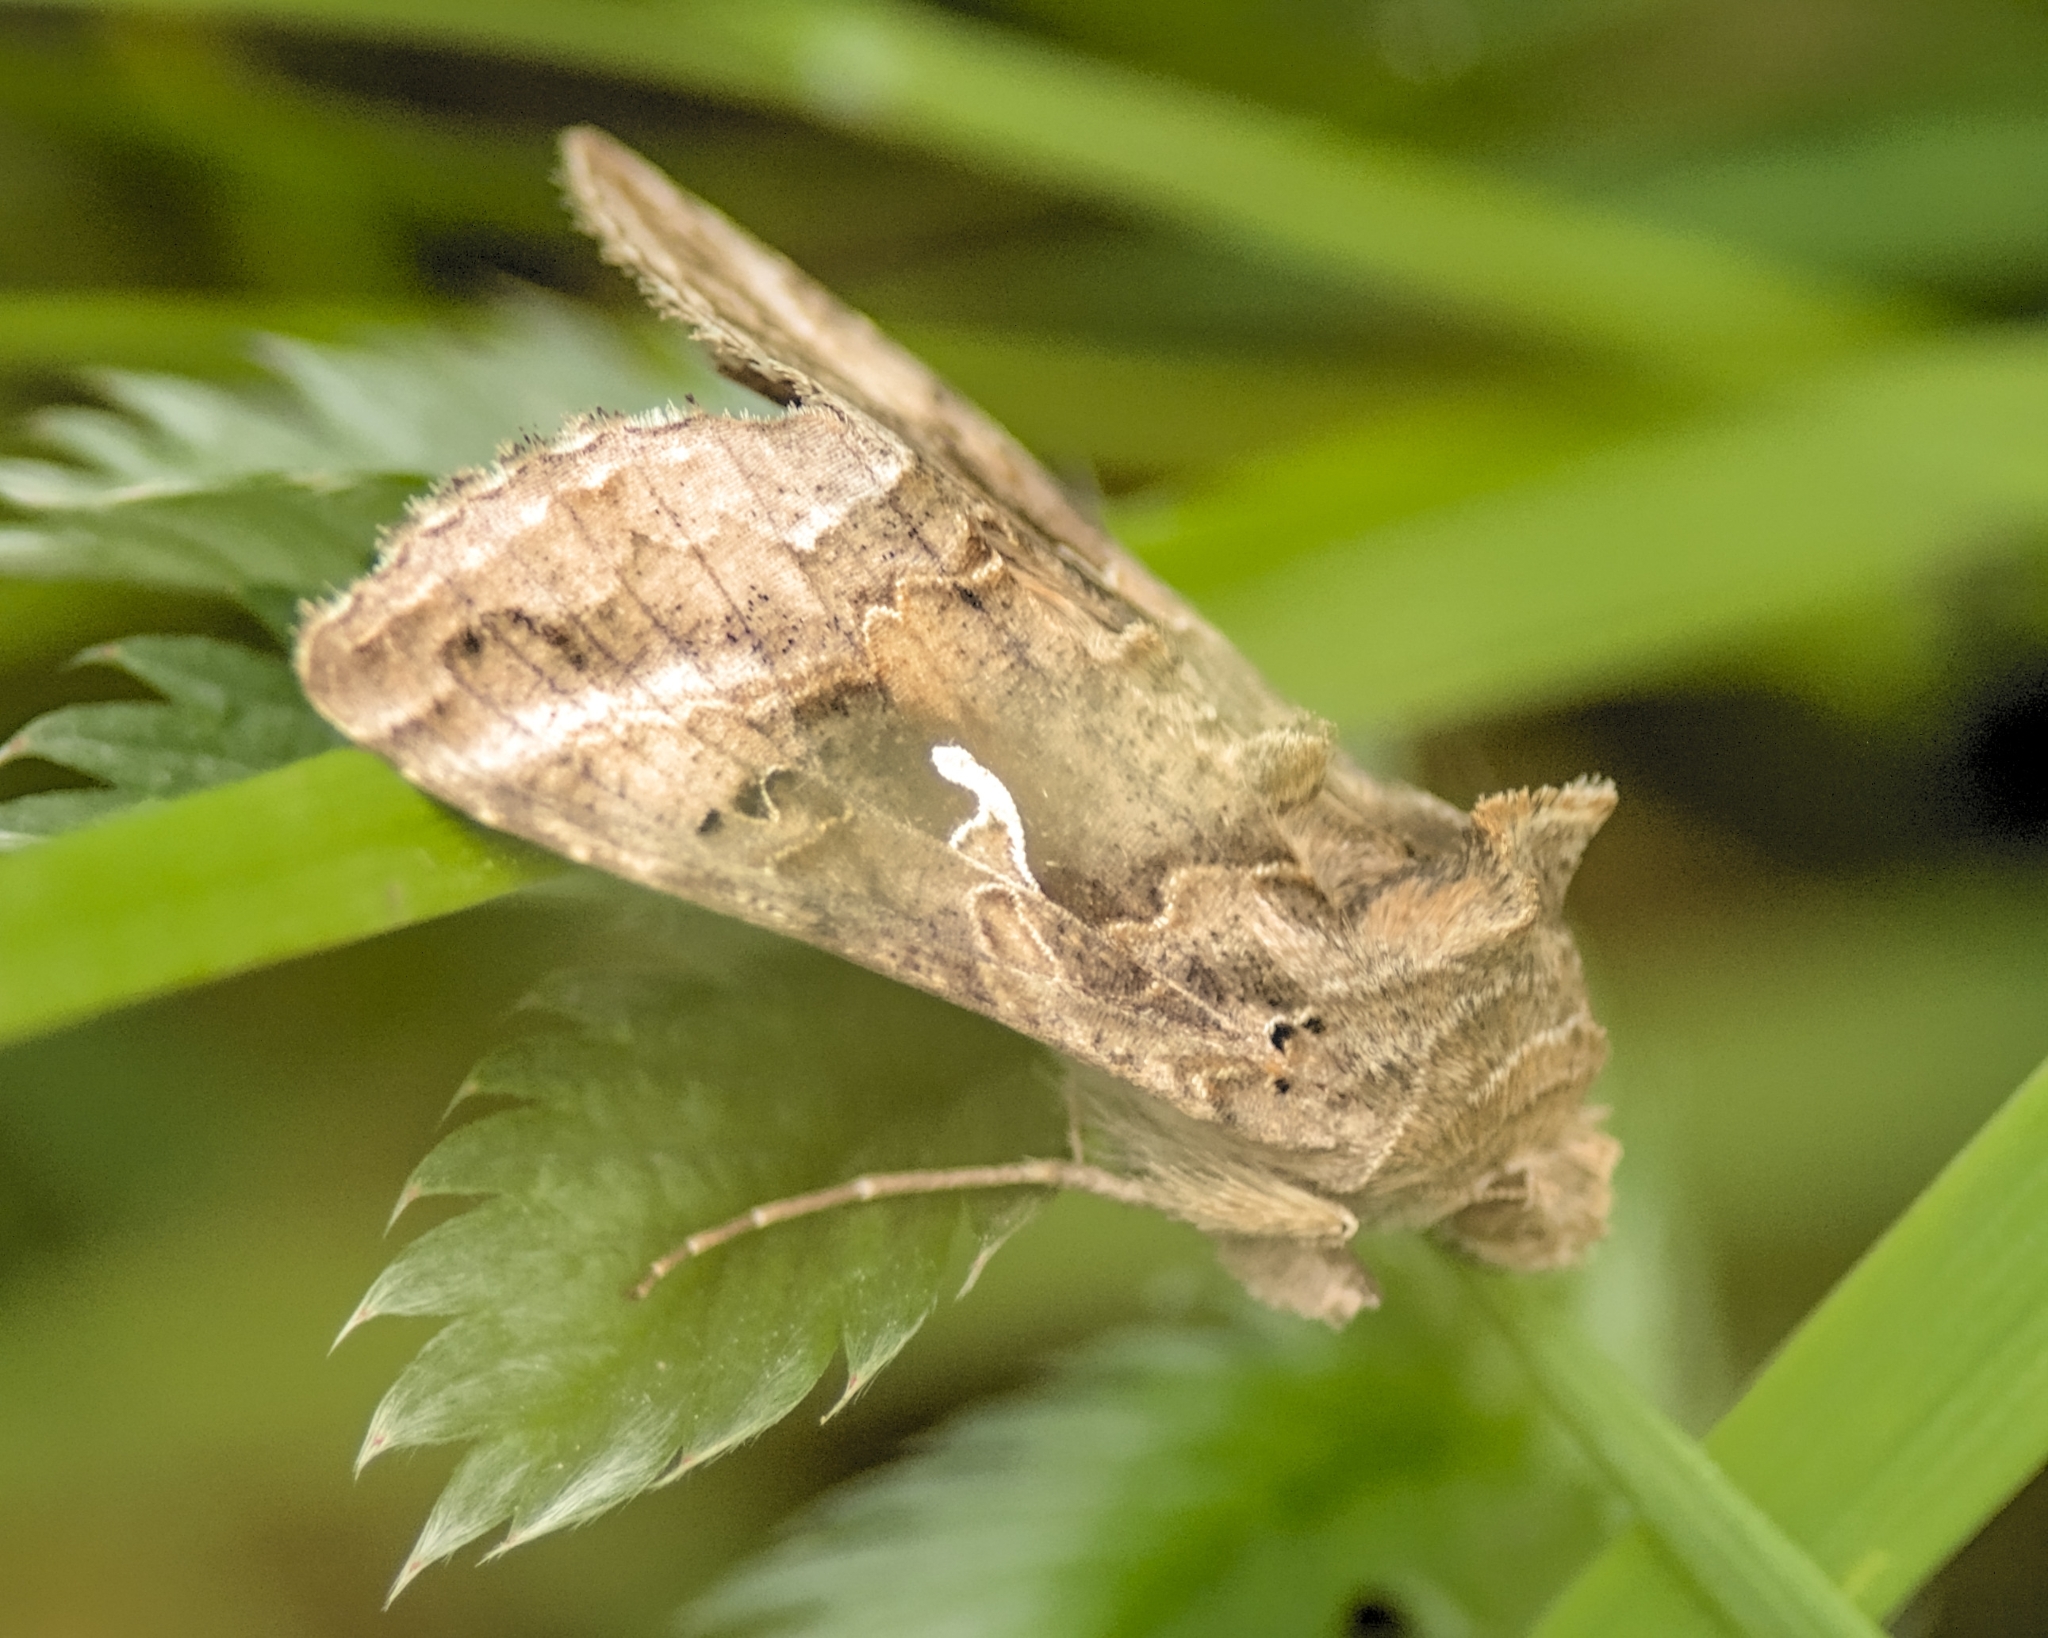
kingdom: Animalia
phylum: Arthropoda
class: Insecta
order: Lepidoptera
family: Noctuidae
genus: Autographa
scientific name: Autographa gamma
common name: Silver y
